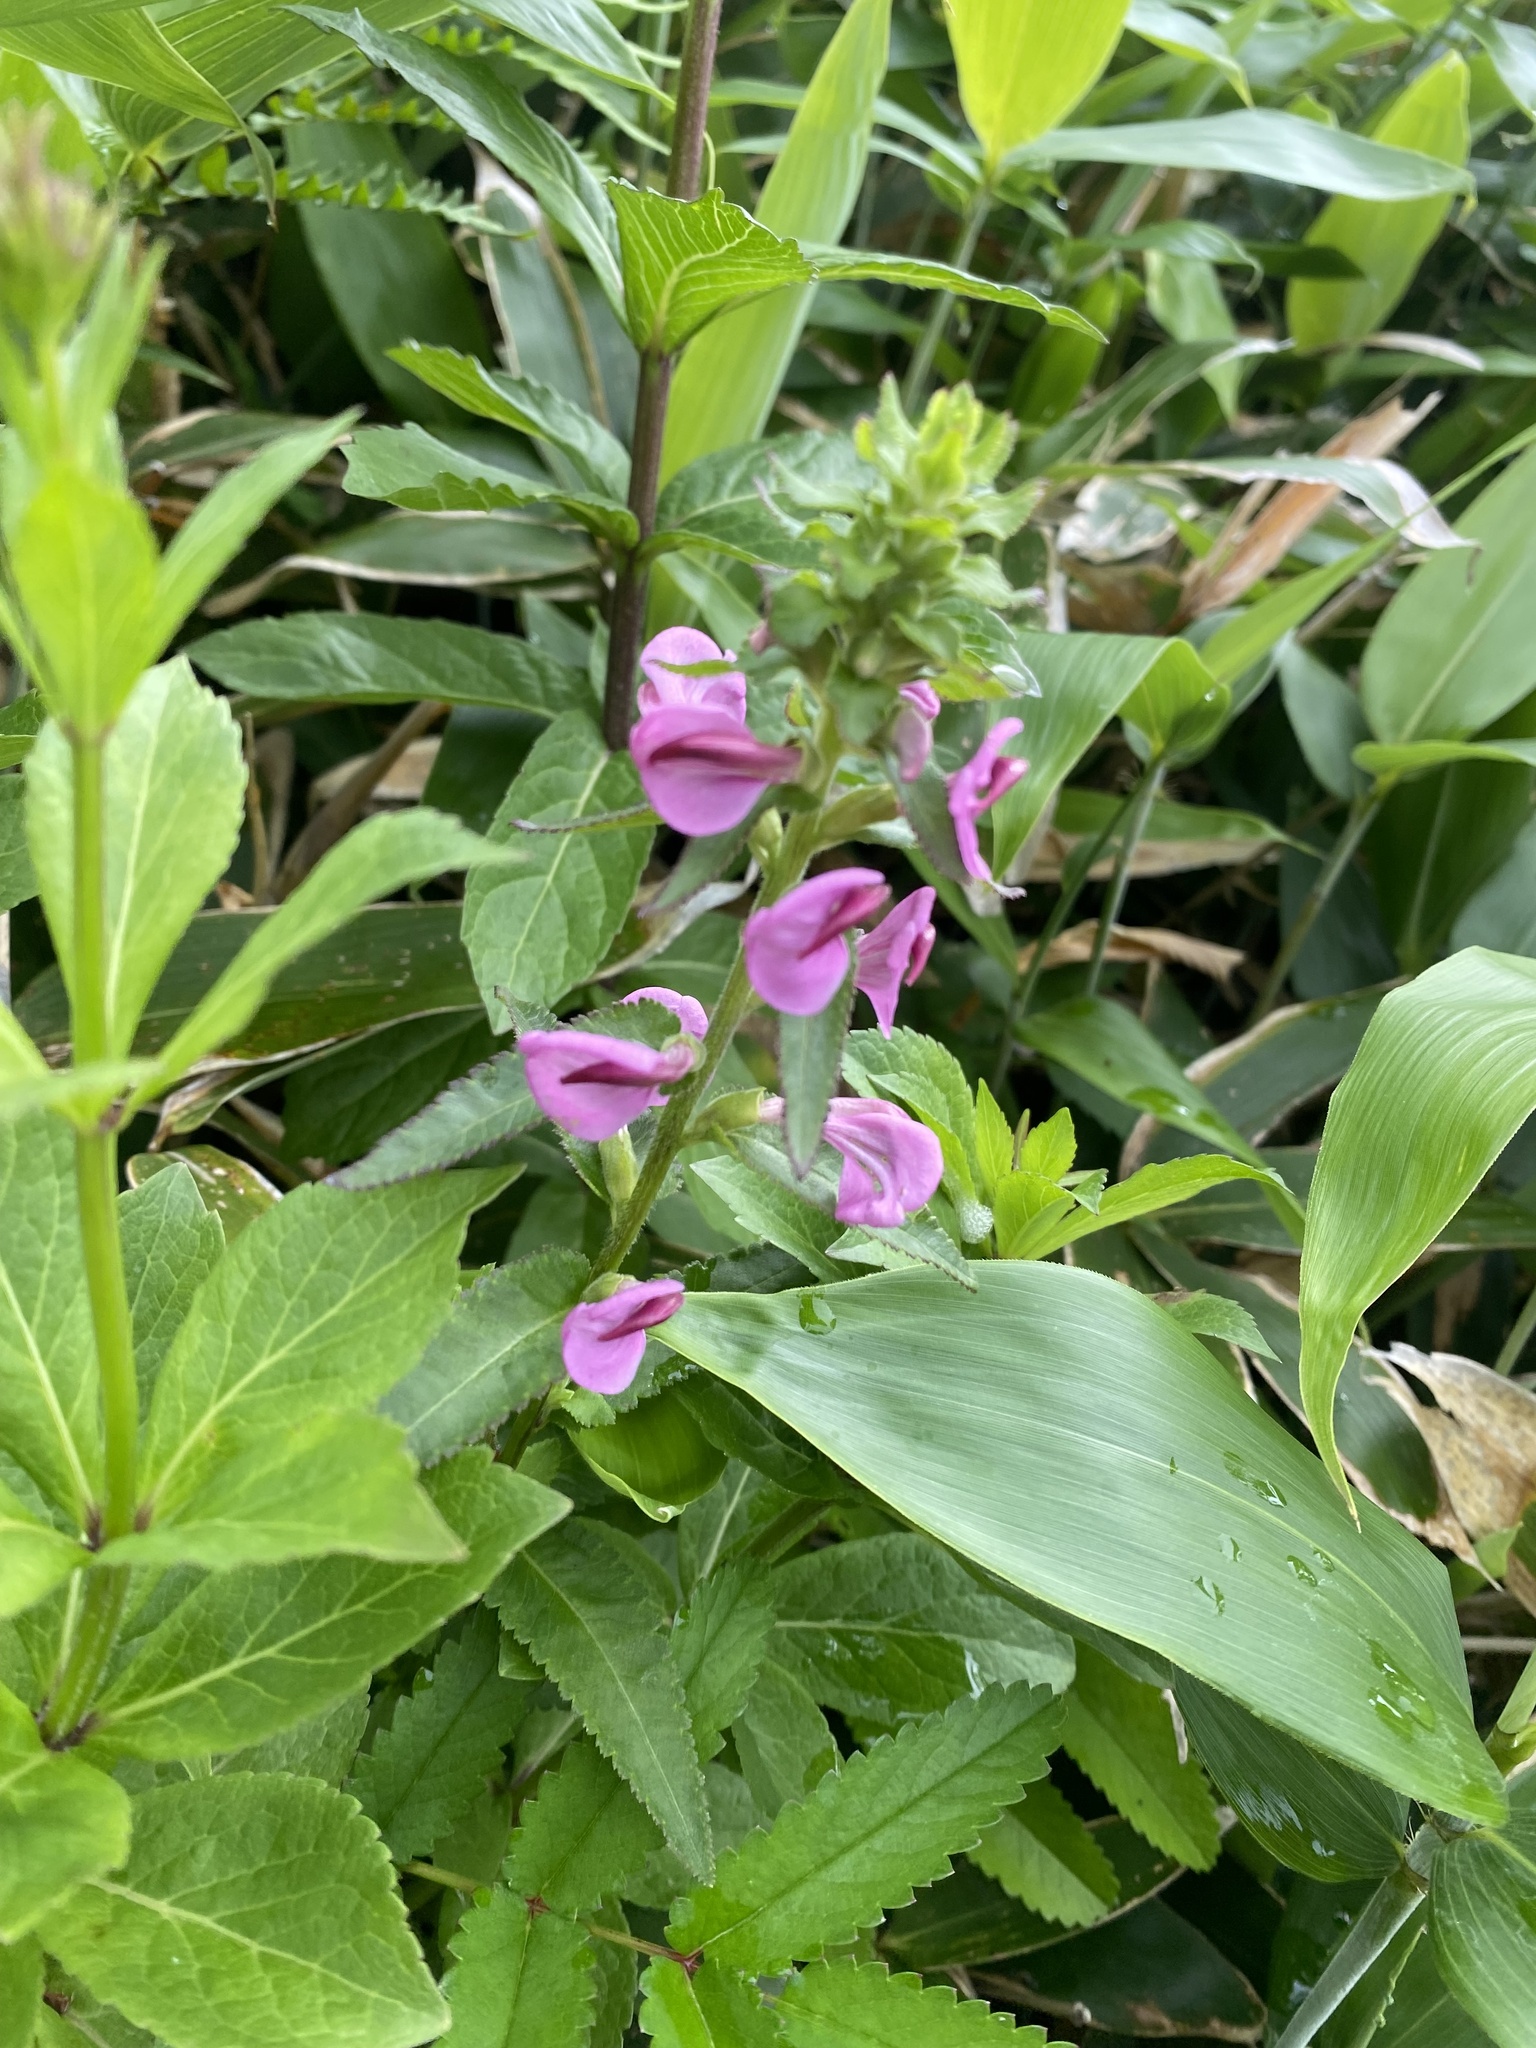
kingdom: Plantae
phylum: Tracheophyta
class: Magnoliopsida
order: Lamiales
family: Orobanchaceae
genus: Pedicularis
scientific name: Pedicularis resupinata
